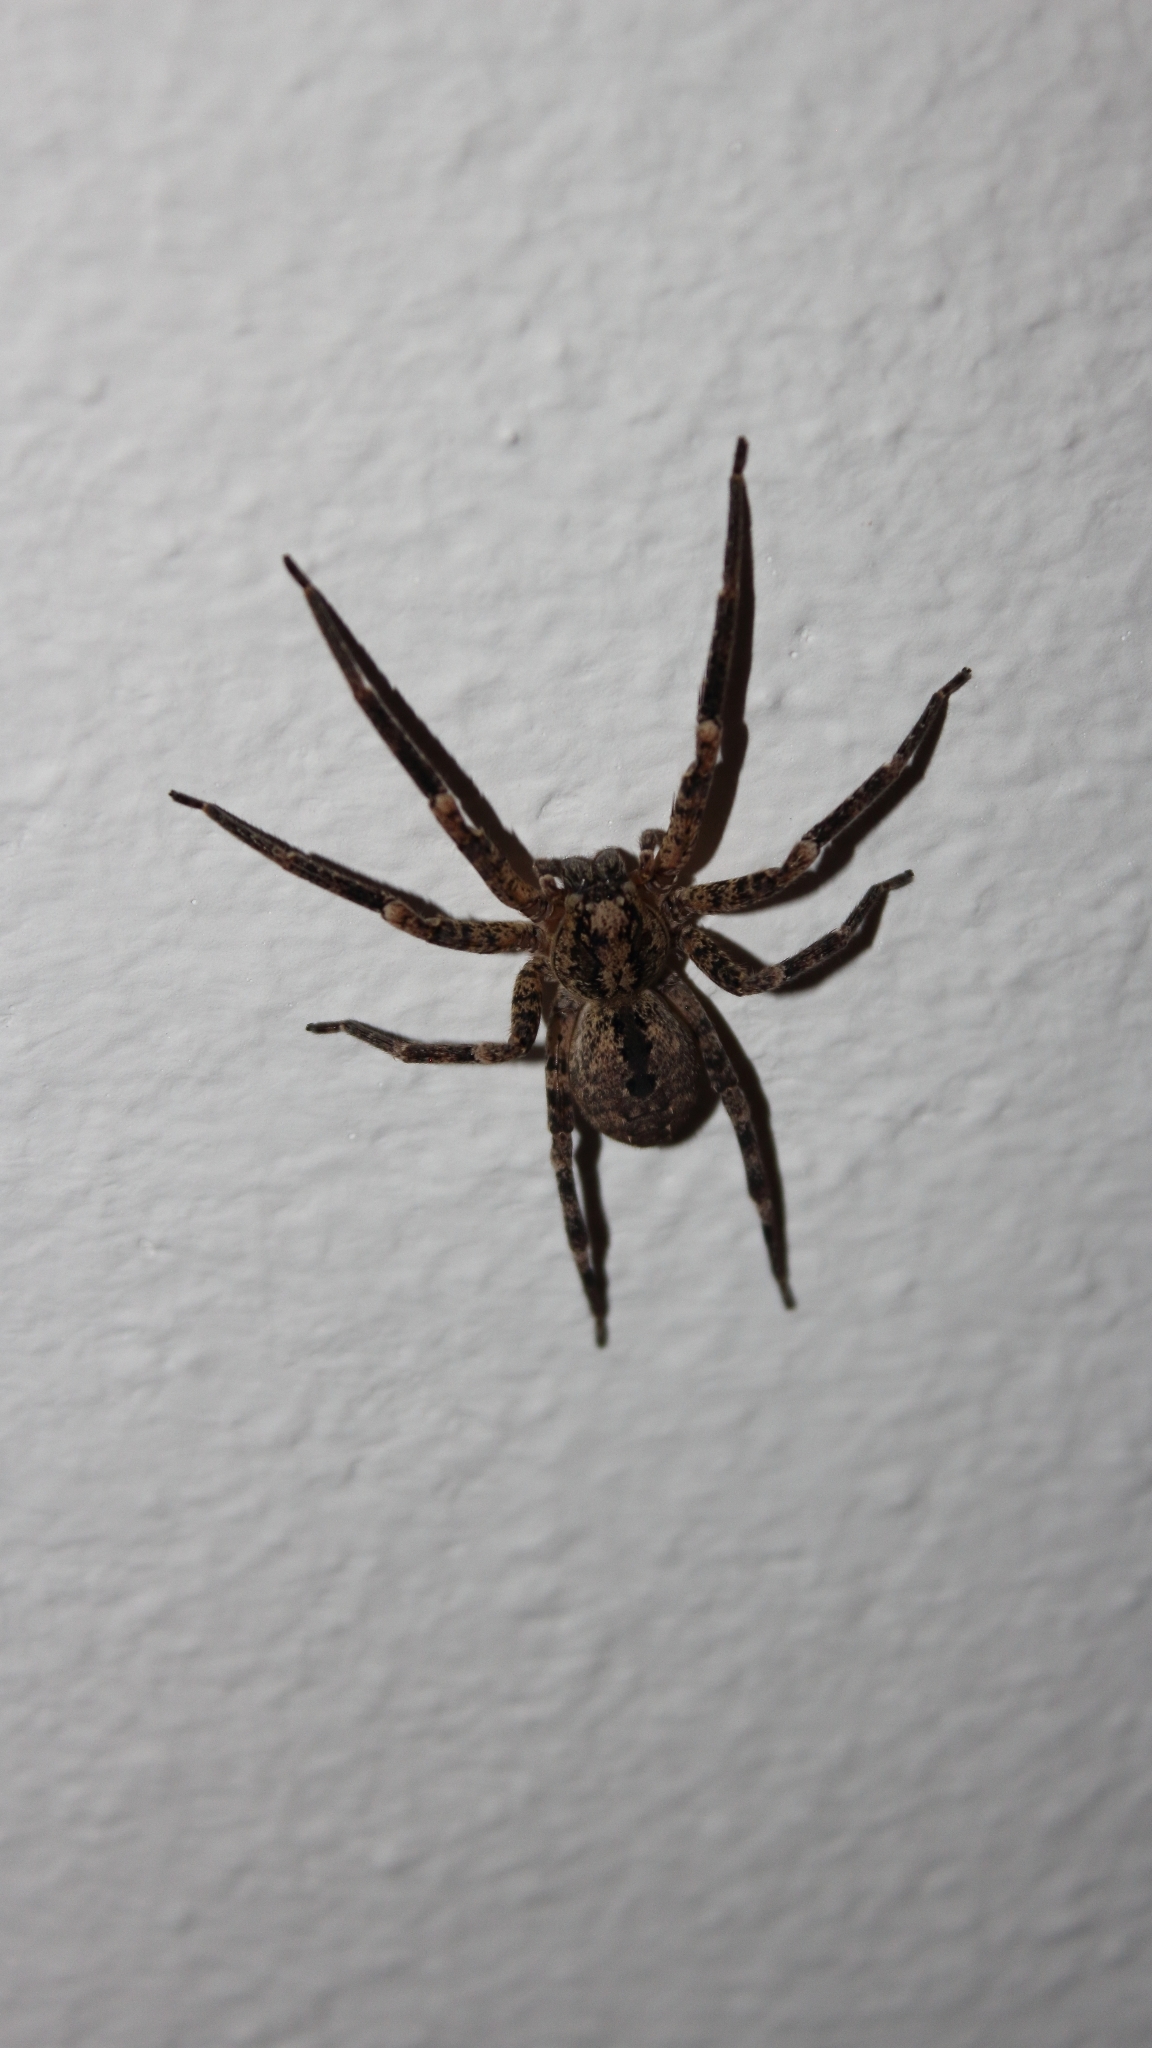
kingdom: Animalia
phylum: Arthropoda
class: Arachnida
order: Araneae
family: Zoropsidae
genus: Zoropsis
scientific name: Zoropsis spinimana
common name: Zoropsid spider
